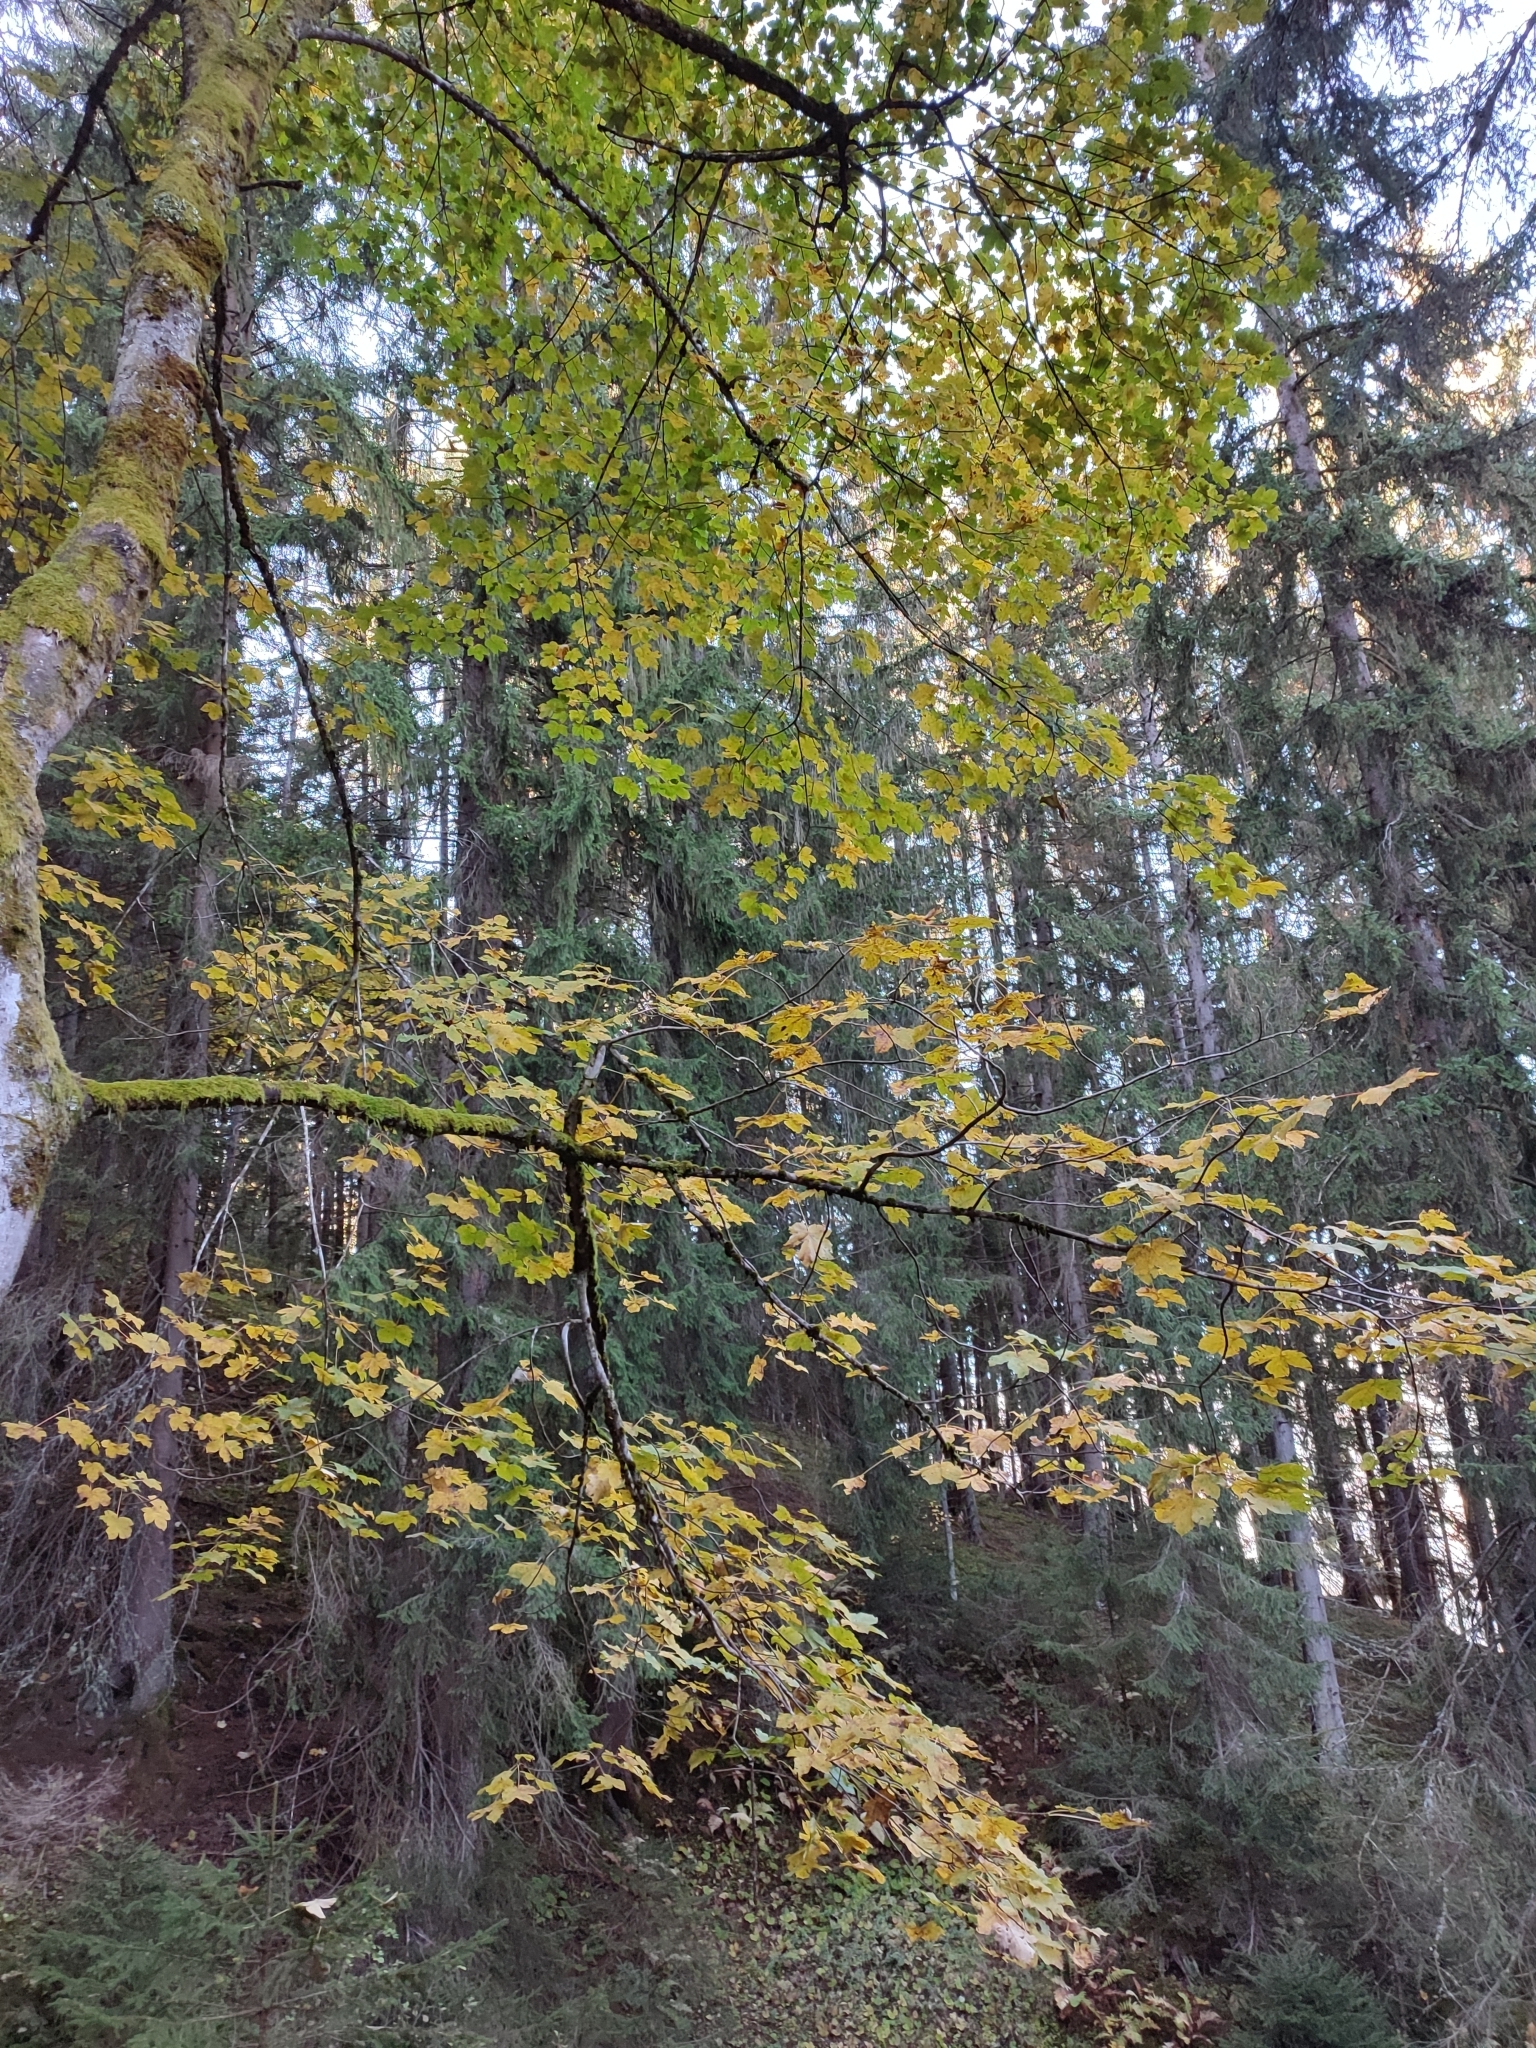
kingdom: Plantae
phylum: Tracheophyta
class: Magnoliopsida
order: Sapindales
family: Sapindaceae
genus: Acer
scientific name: Acer pseudoplatanus
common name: Sycamore
